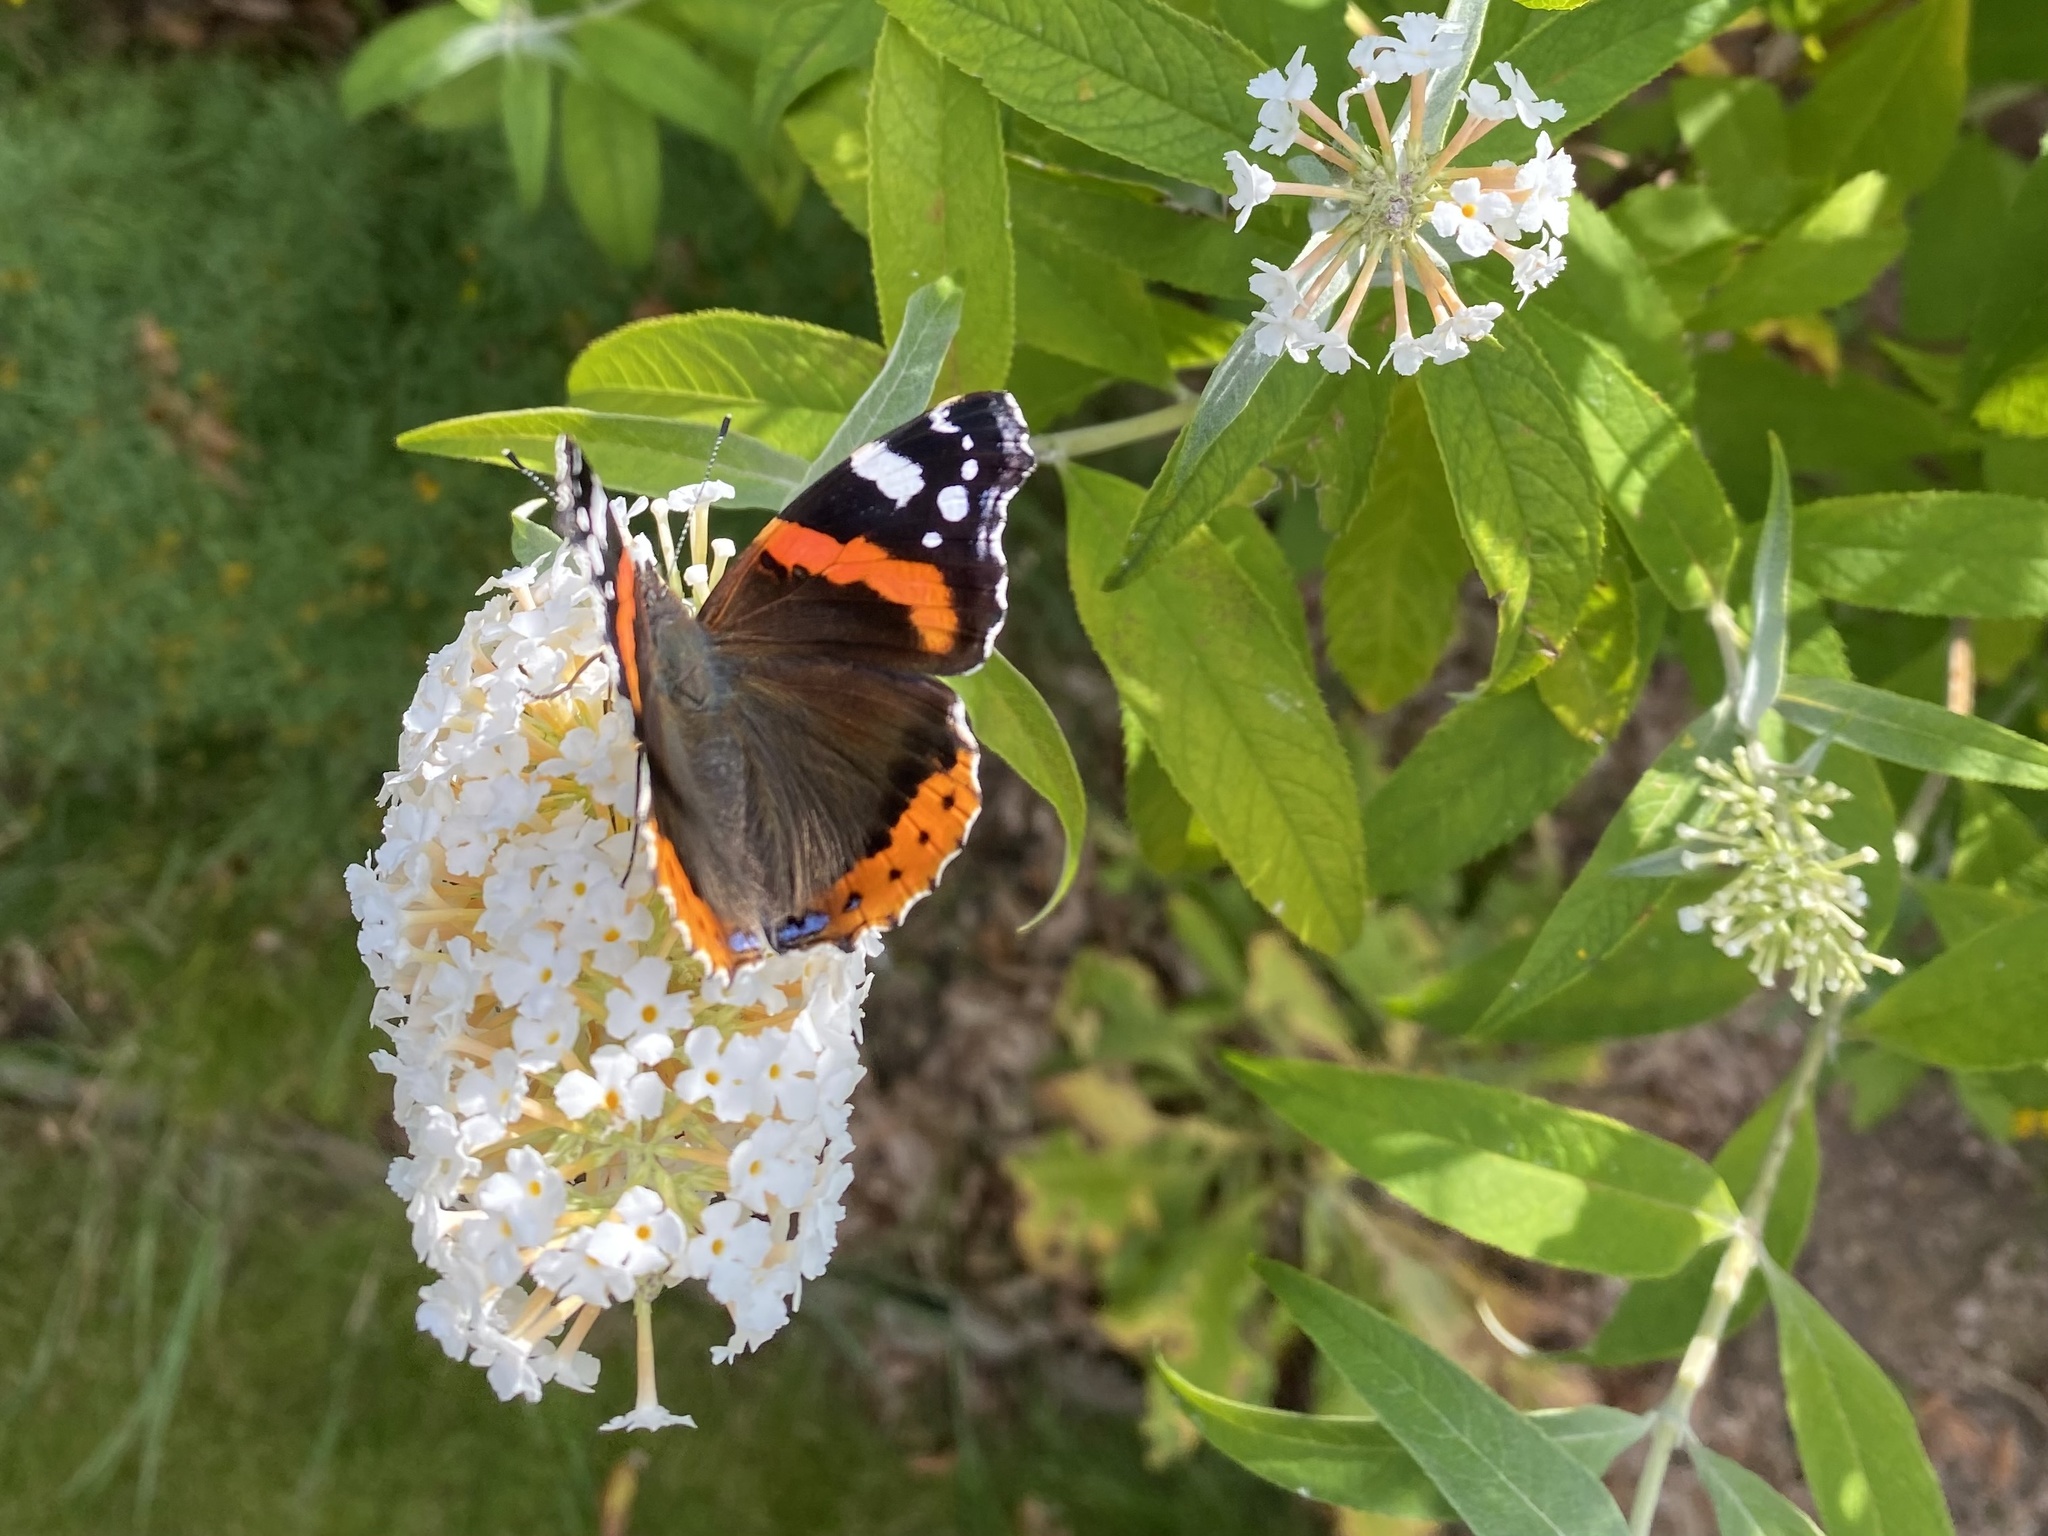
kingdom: Animalia
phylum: Arthropoda
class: Insecta
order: Lepidoptera
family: Nymphalidae
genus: Vanessa
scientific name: Vanessa atalanta
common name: Red admiral
